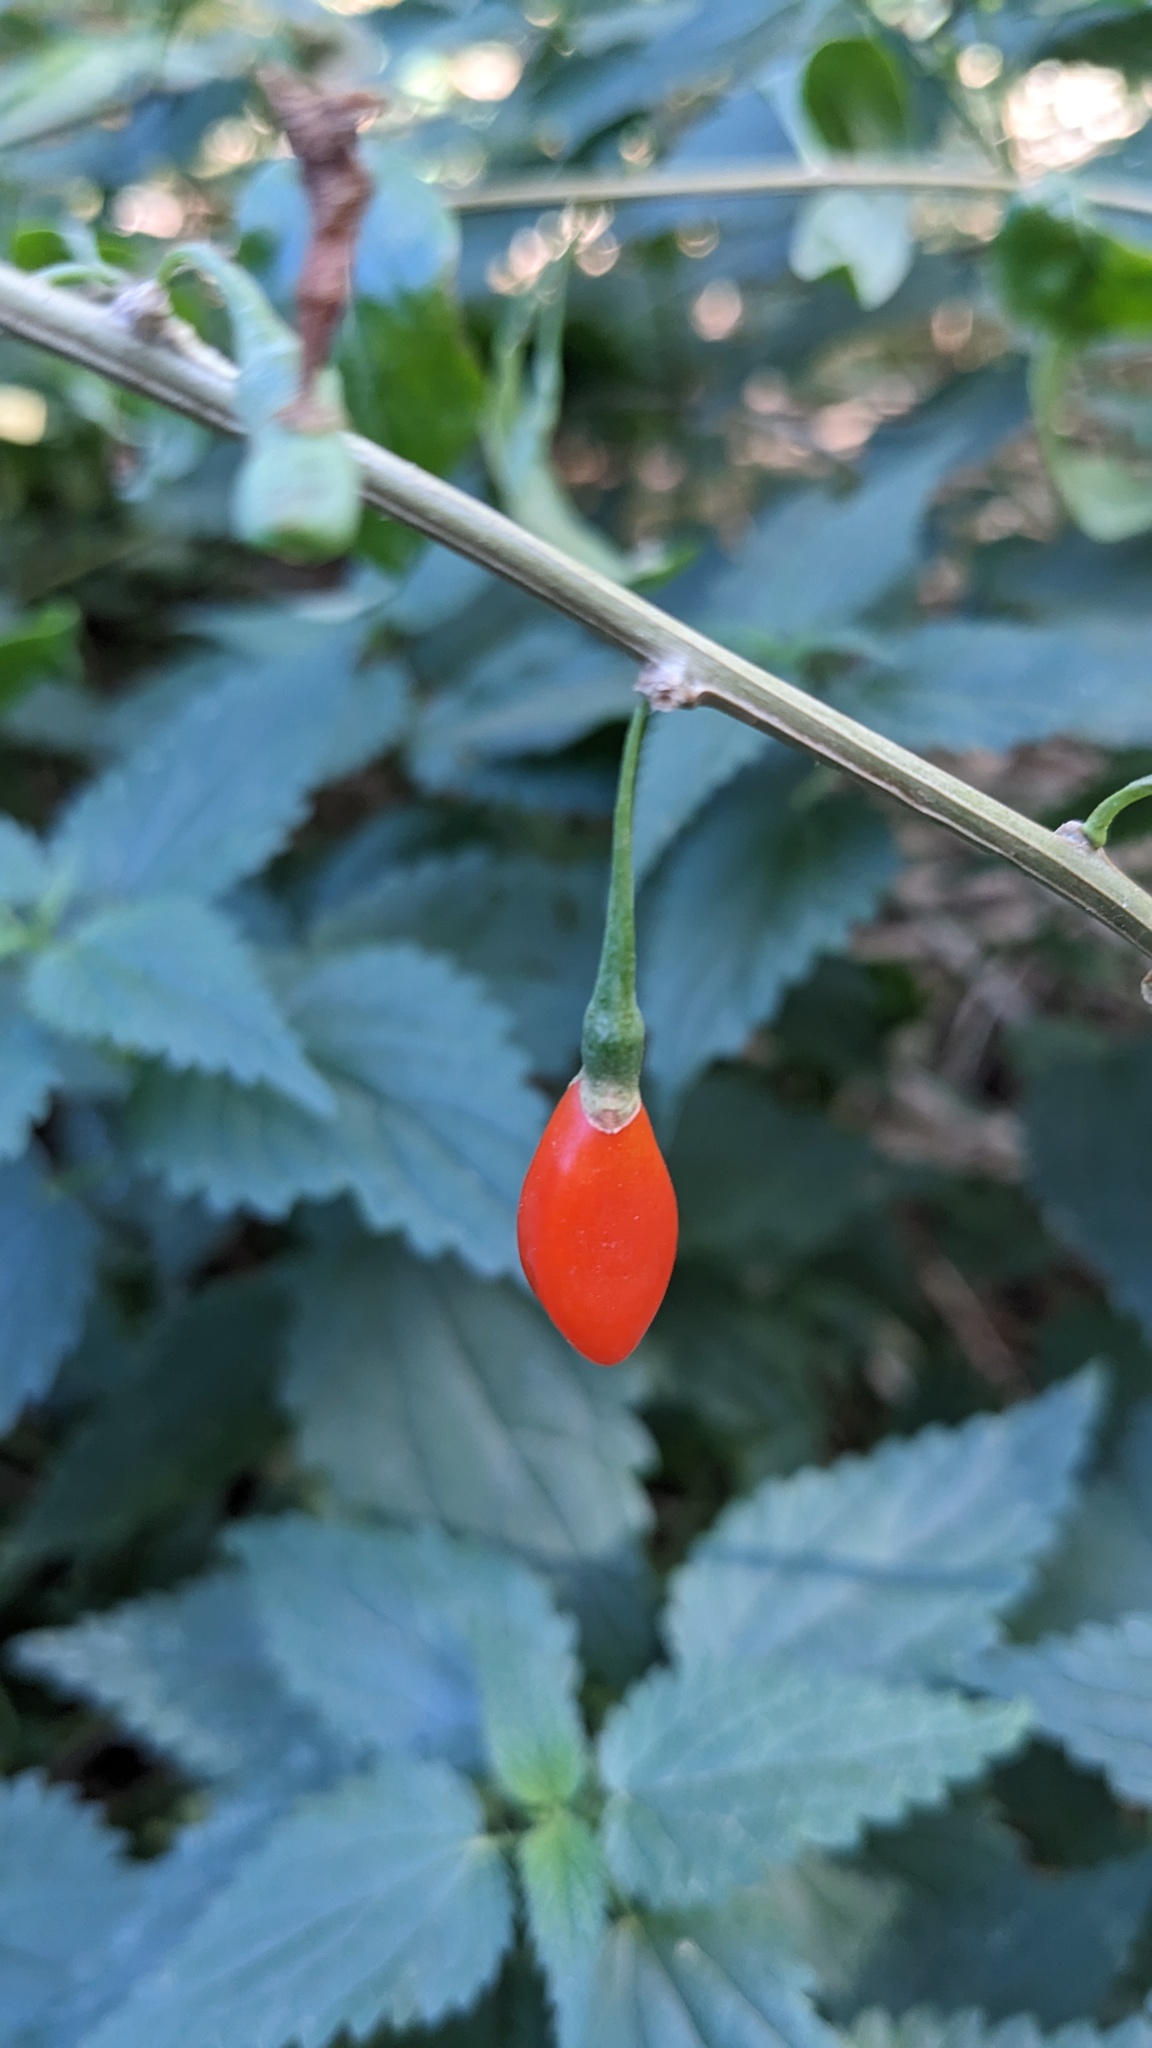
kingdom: Plantae
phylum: Tracheophyta
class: Magnoliopsida
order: Solanales
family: Solanaceae
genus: Lycium
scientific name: Lycium barbarum
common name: Duke of argyll's teaplant
